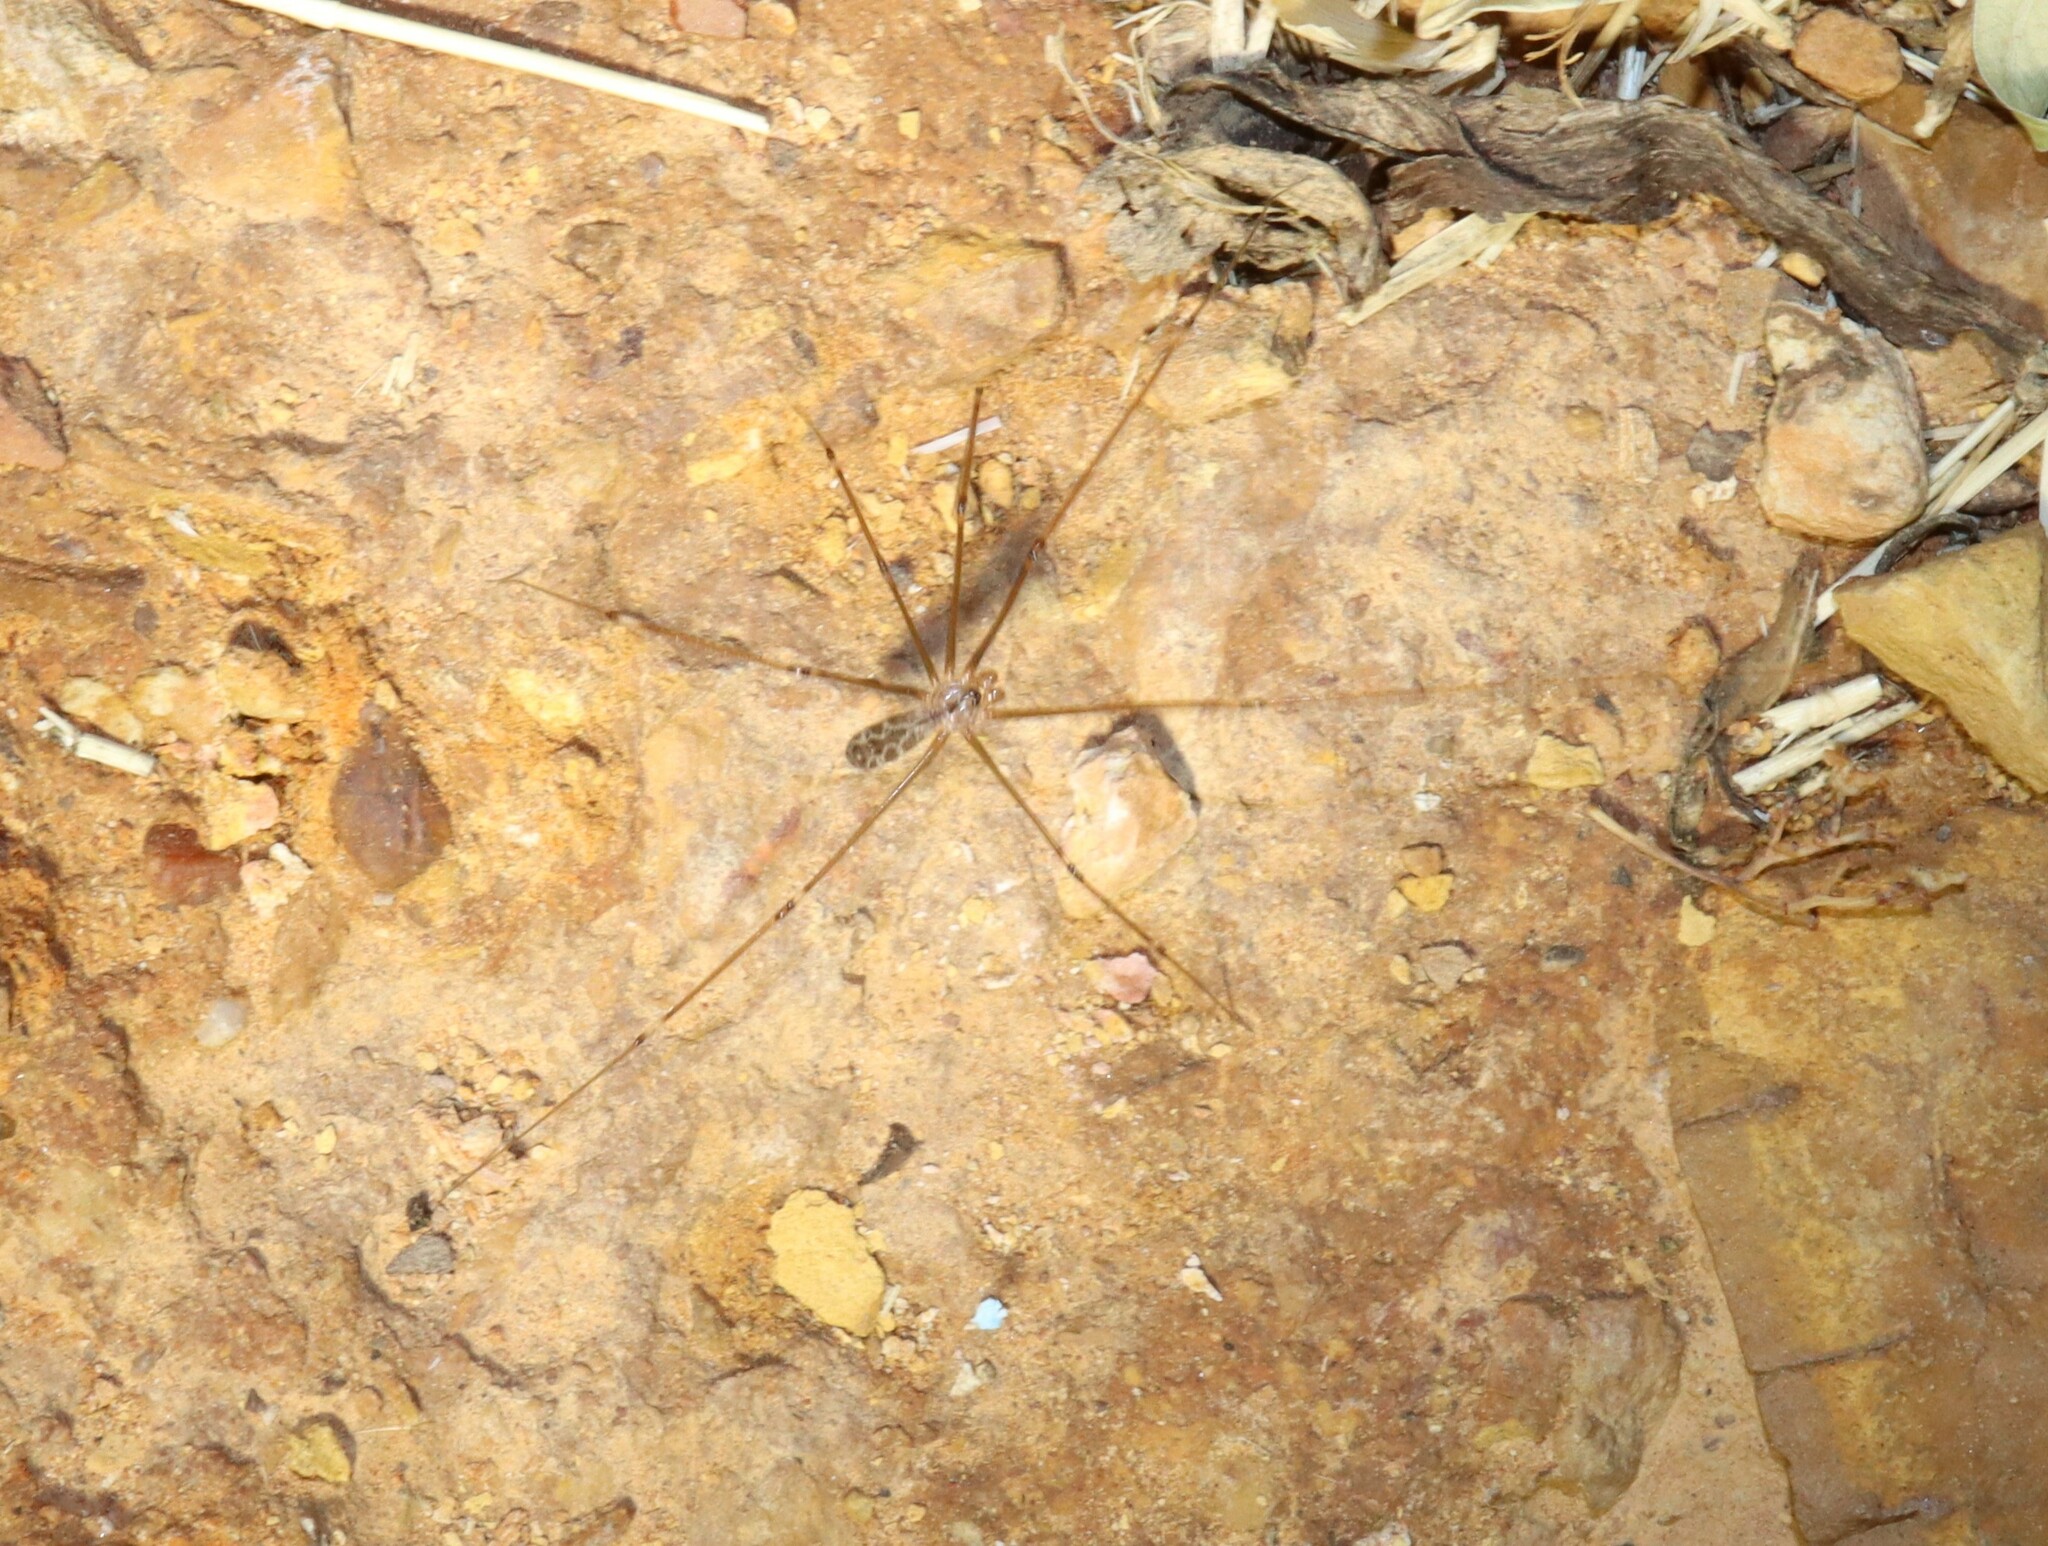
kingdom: Animalia
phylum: Arthropoda
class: Arachnida
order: Araneae
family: Pholcidae
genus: Smeringopus
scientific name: Smeringopus natalensis
